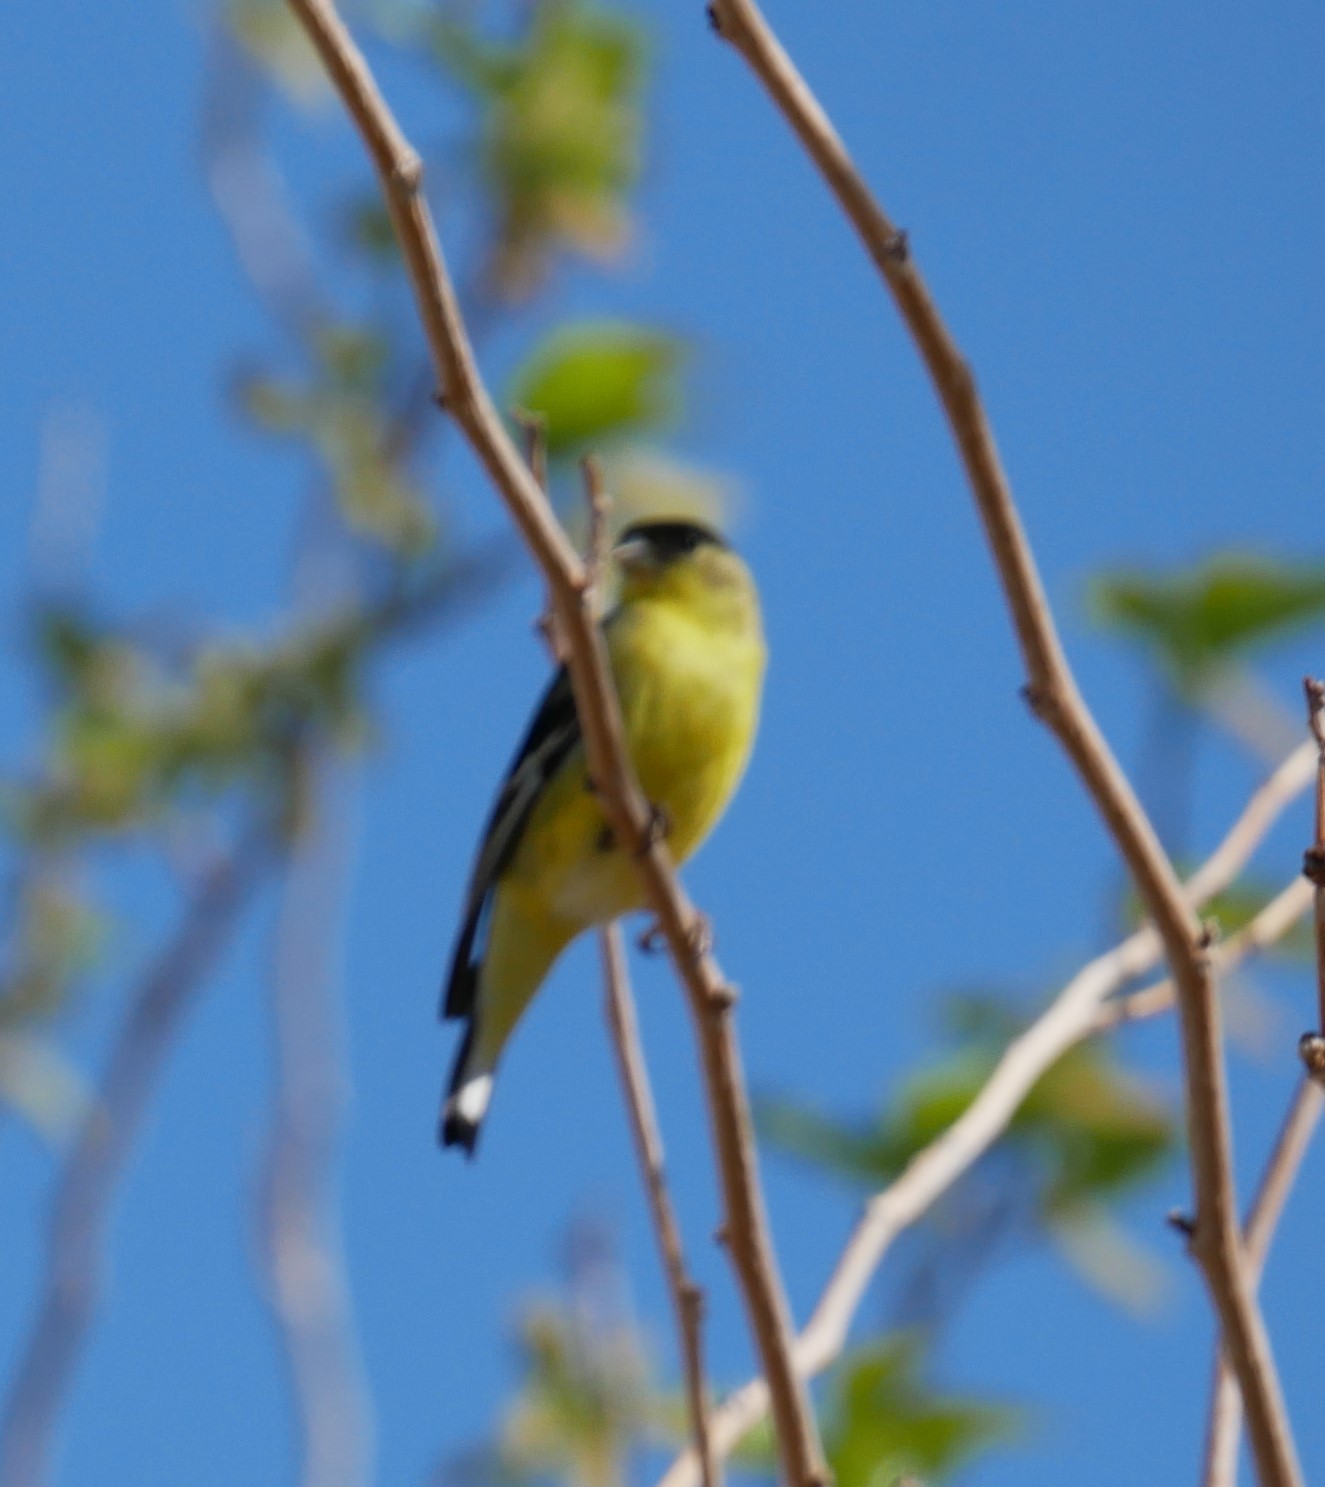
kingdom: Animalia
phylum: Chordata
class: Aves
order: Passeriformes
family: Fringillidae
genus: Spinus
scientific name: Spinus psaltria
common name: Lesser goldfinch
